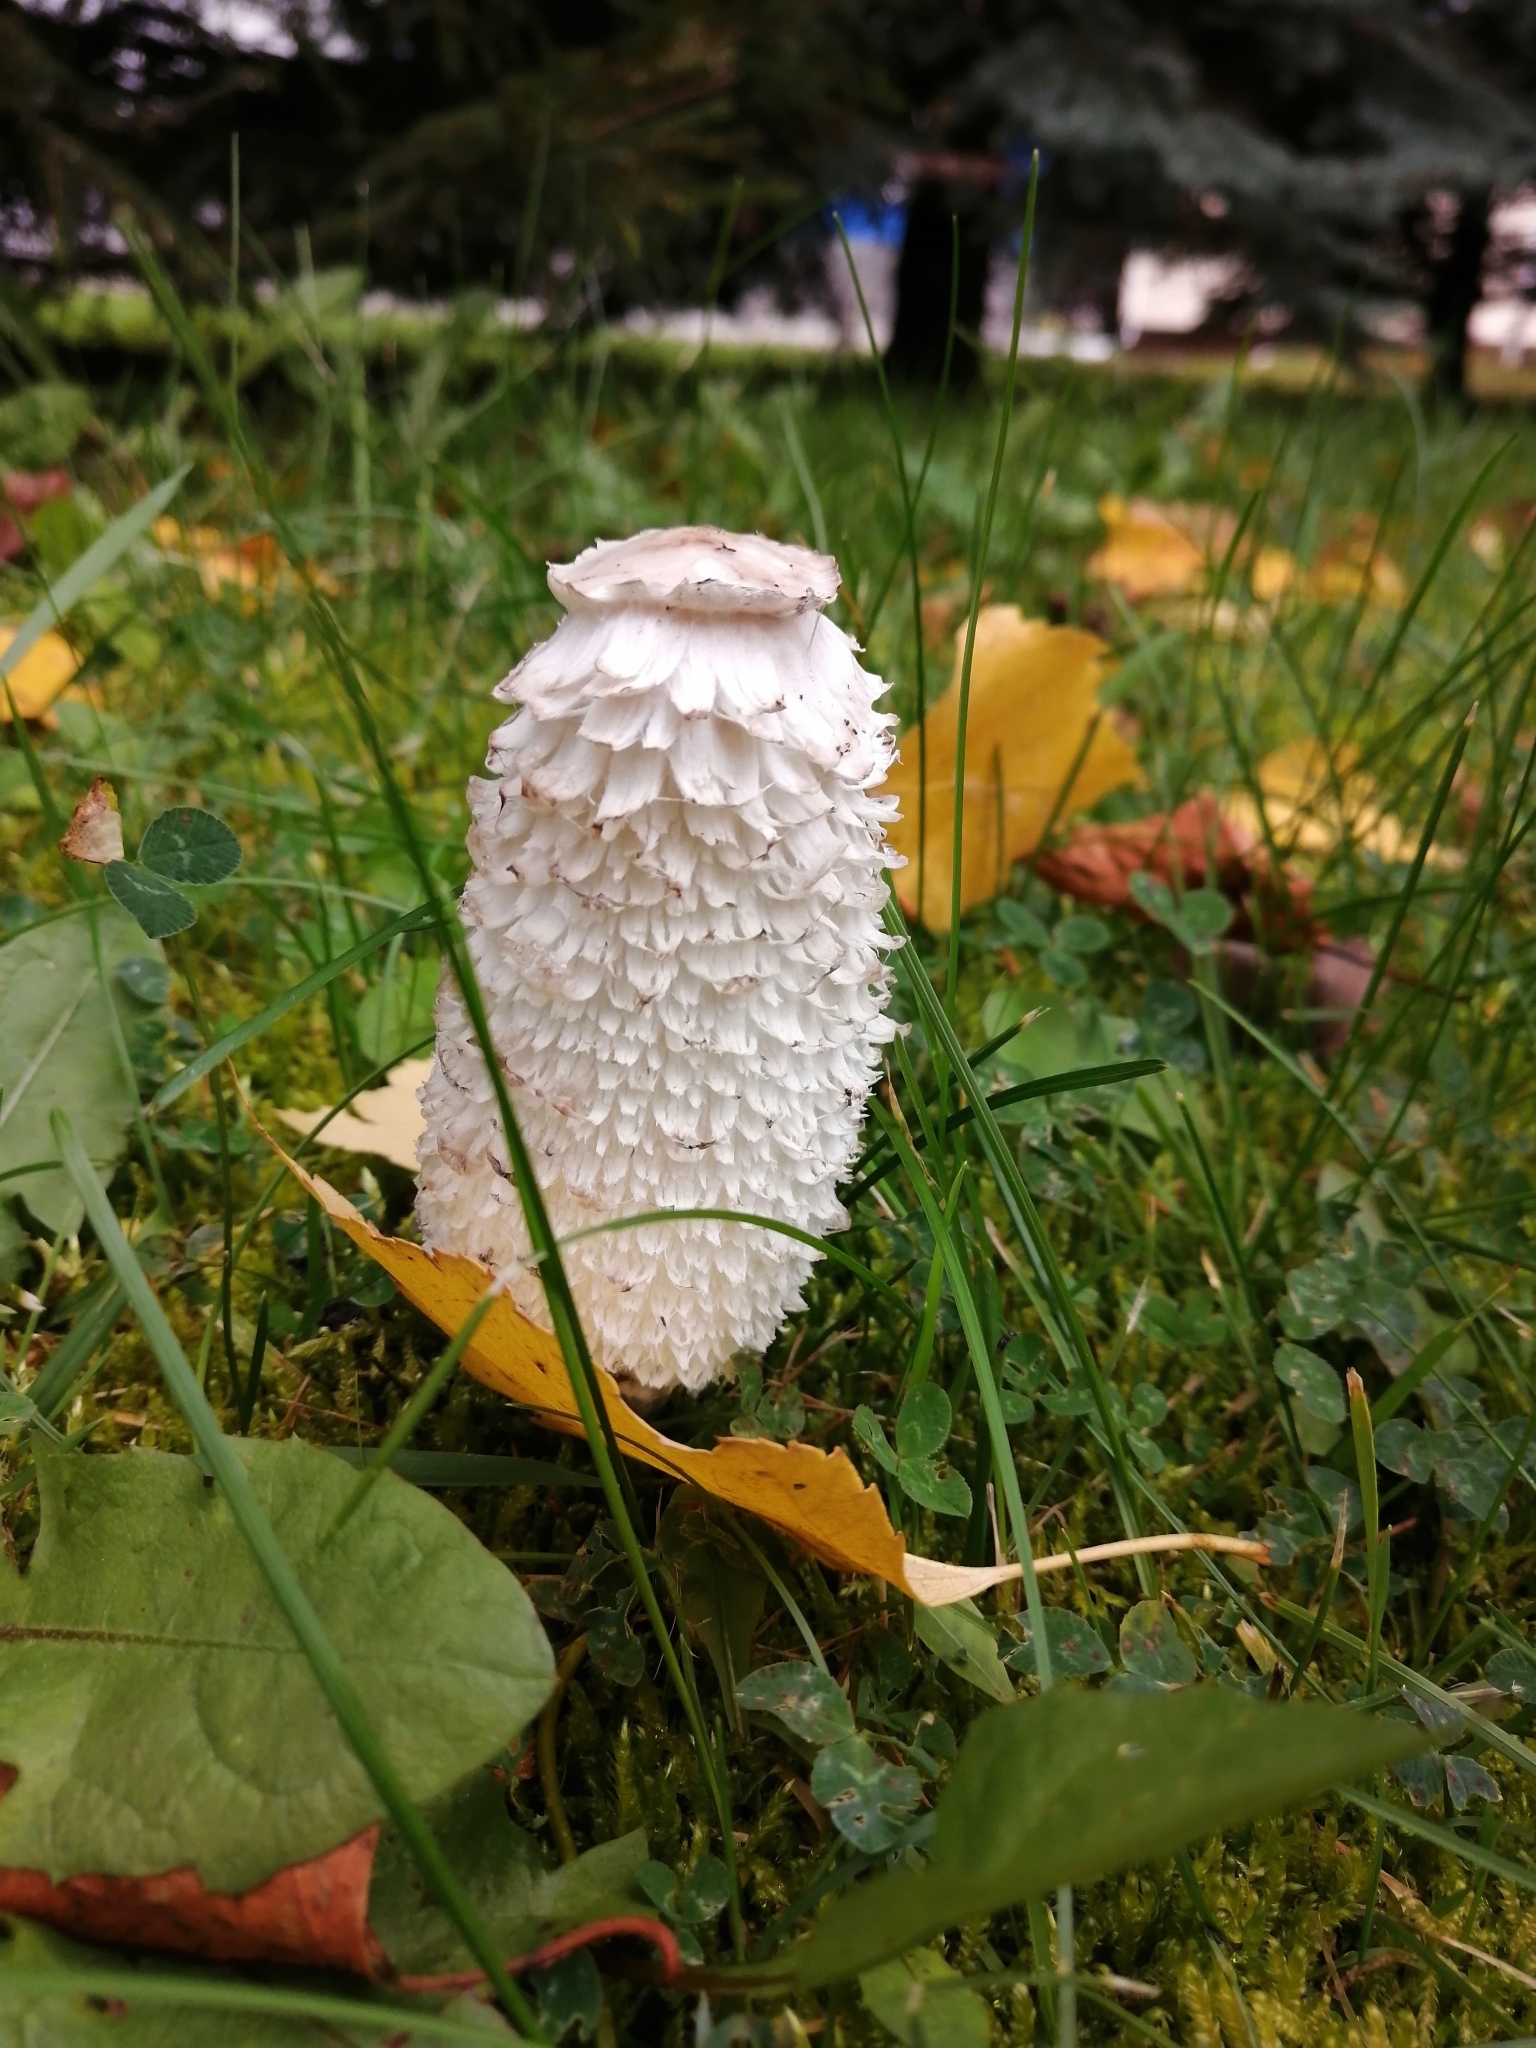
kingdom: Fungi
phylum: Basidiomycota
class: Agaricomycetes
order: Agaricales
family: Agaricaceae
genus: Coprinus
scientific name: Coprinus comatus
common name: Lawyer's wig
